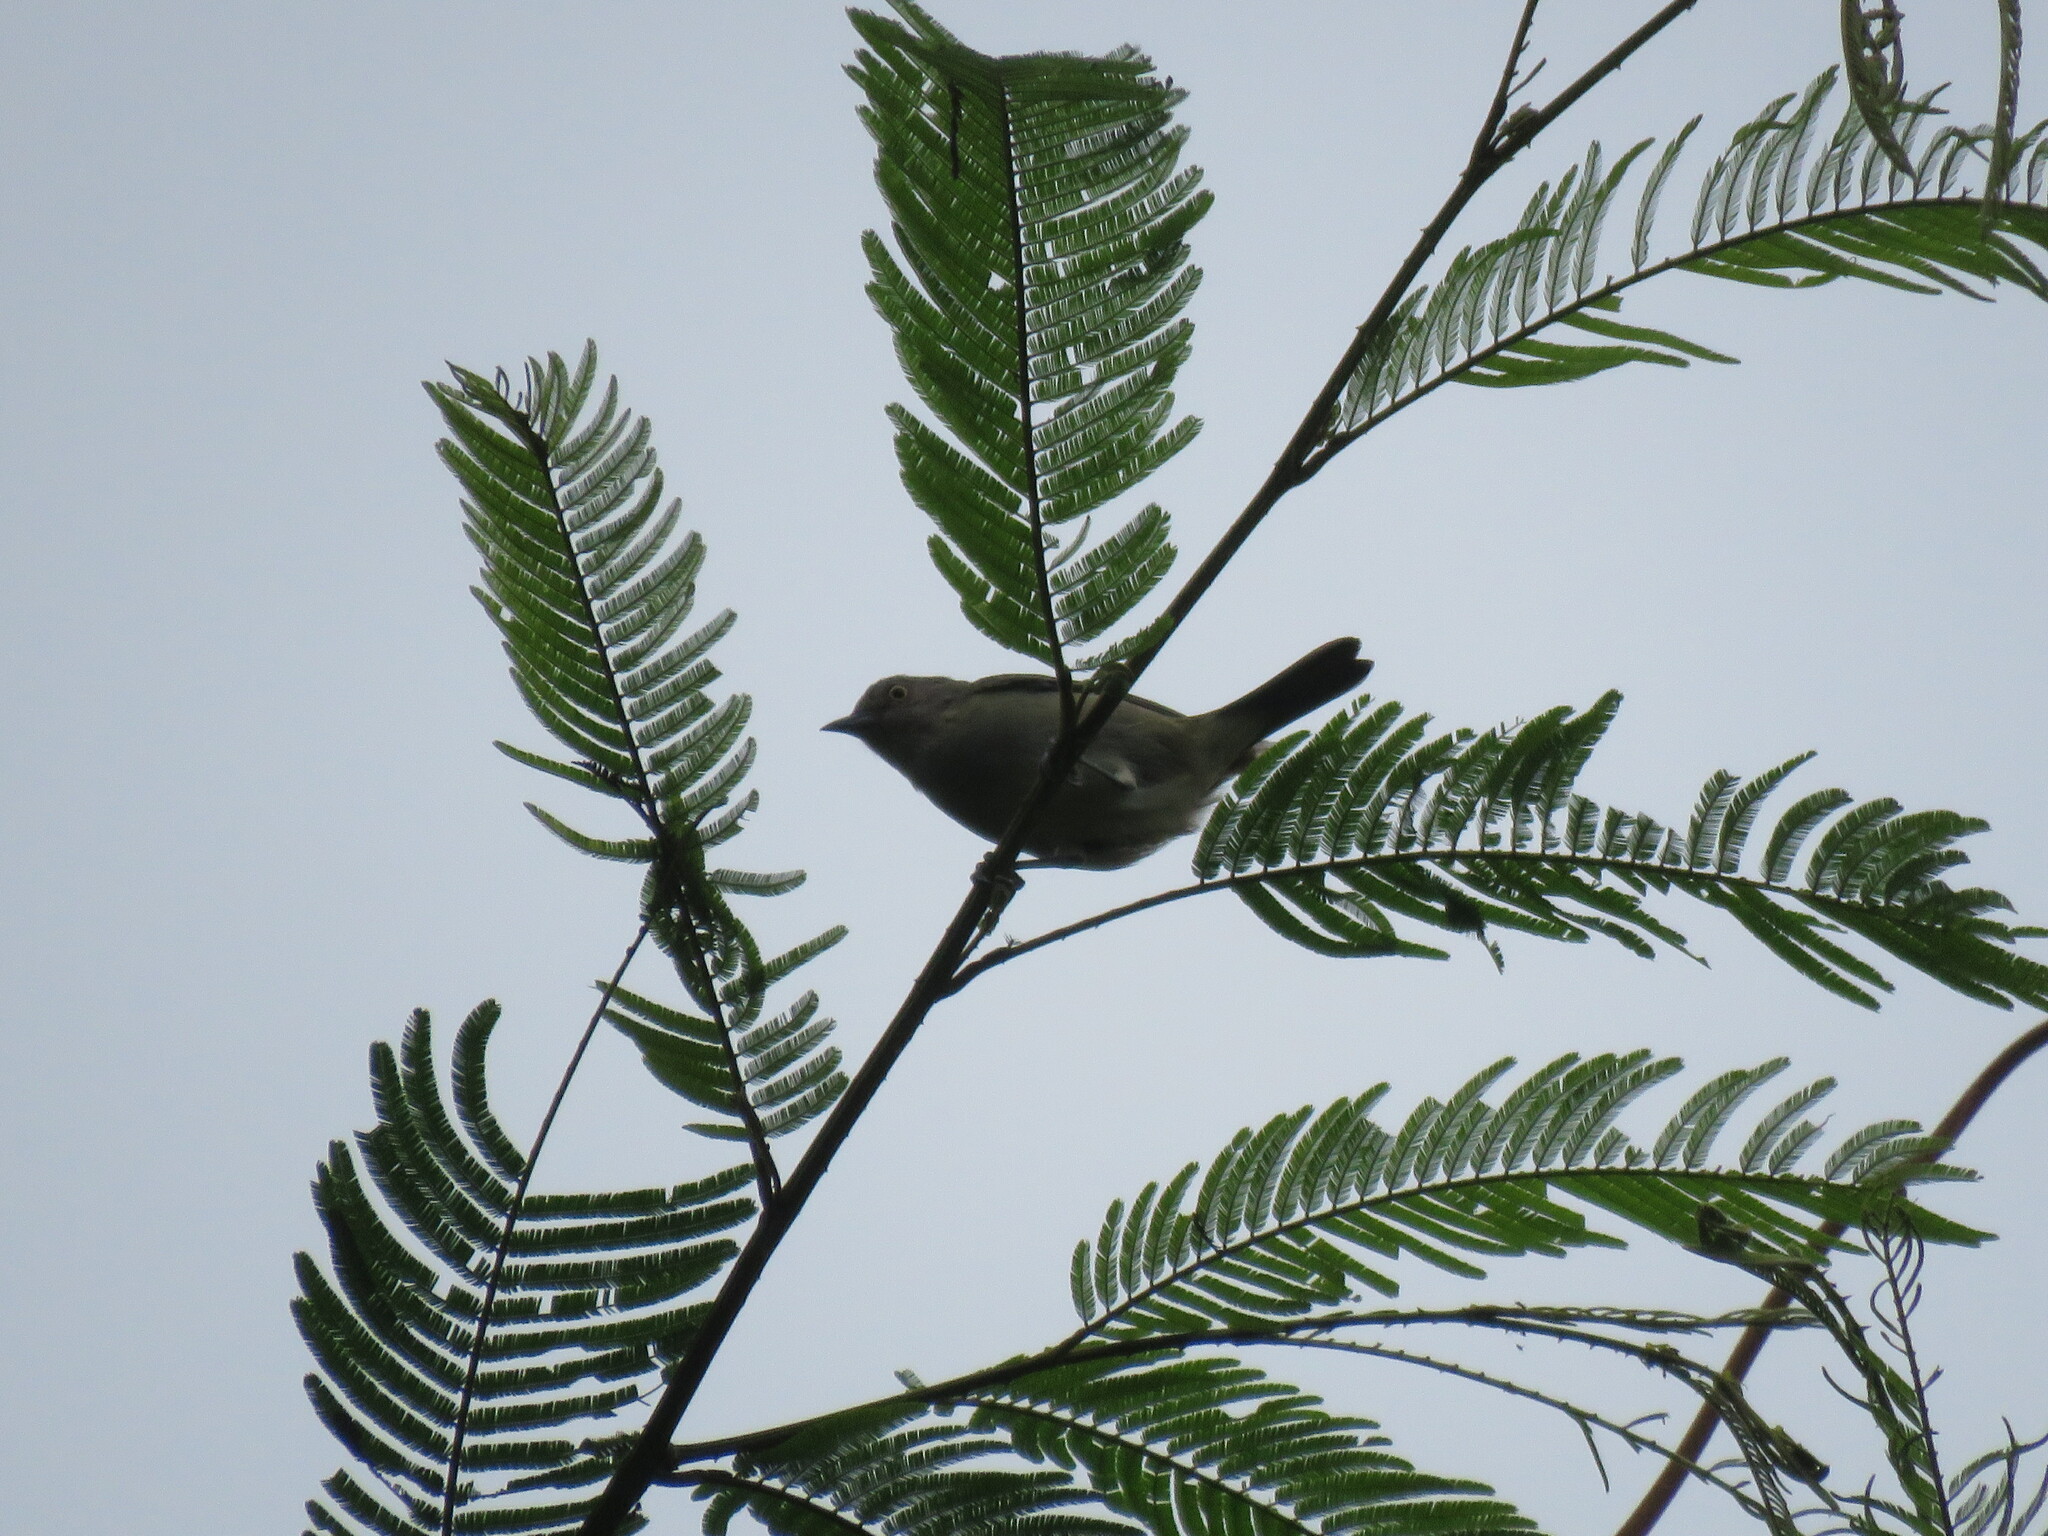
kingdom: Animalia
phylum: Chordata
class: Aves
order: Passeriformes
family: Thraupidae
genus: Dacnis
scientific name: Dacnis lineata
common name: Black-faced dacnis
